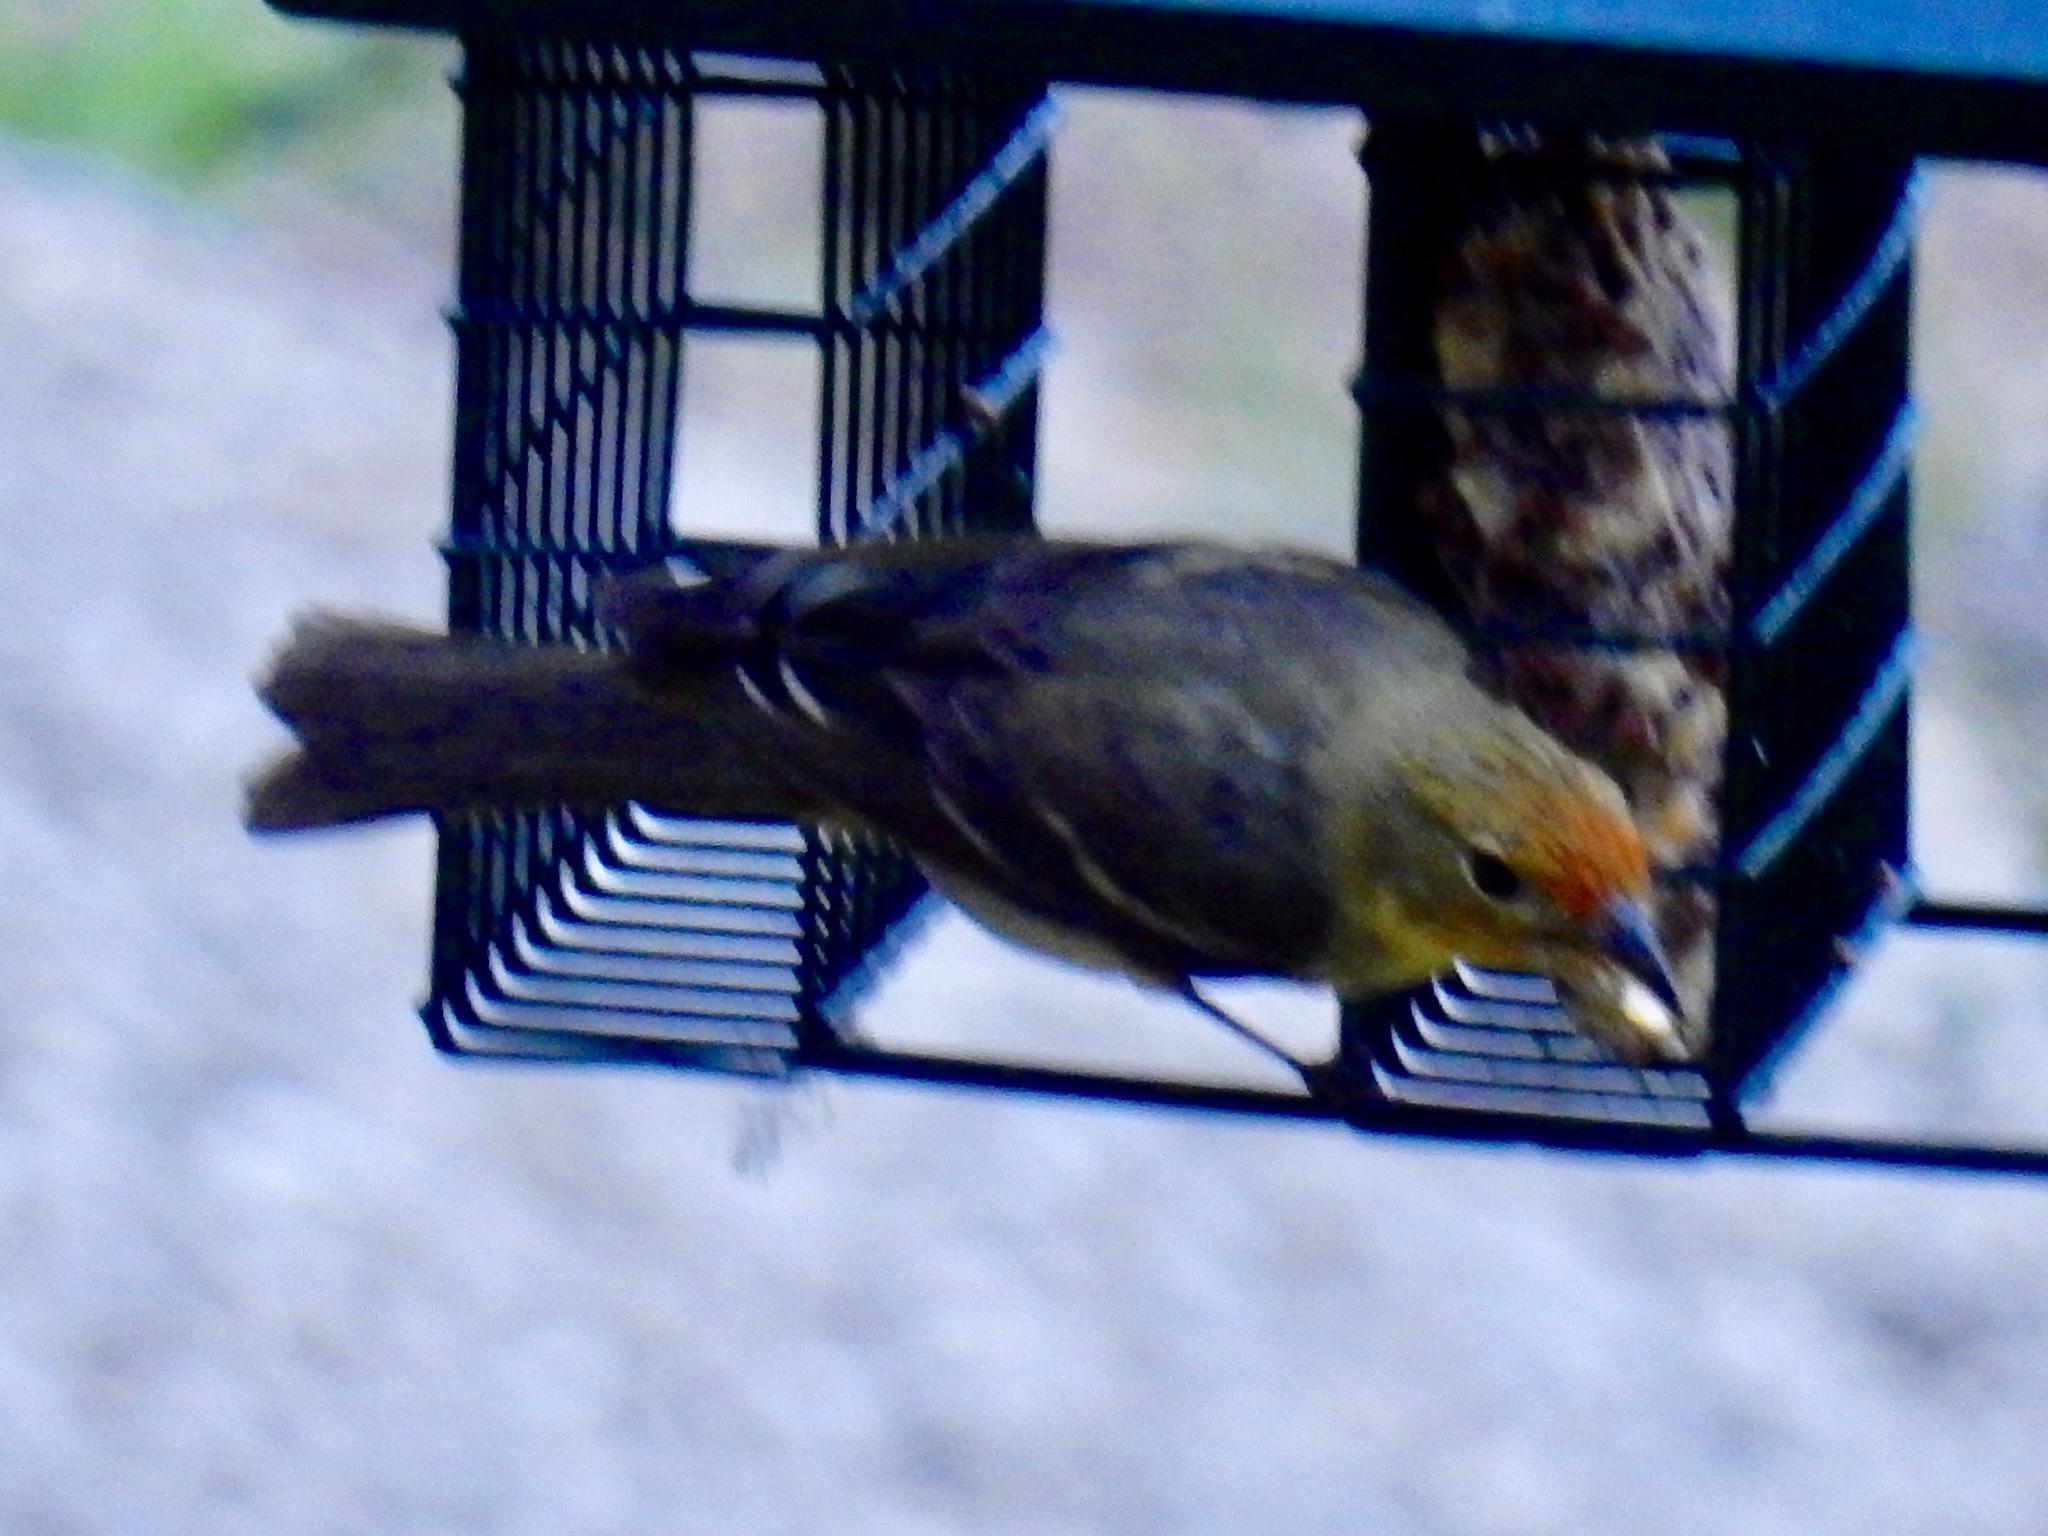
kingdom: Animalia
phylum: Chordata
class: Aves
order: Passeriformes
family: Cardinalidae
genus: Piranga
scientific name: Piranga ludoviciana
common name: Western tanager
